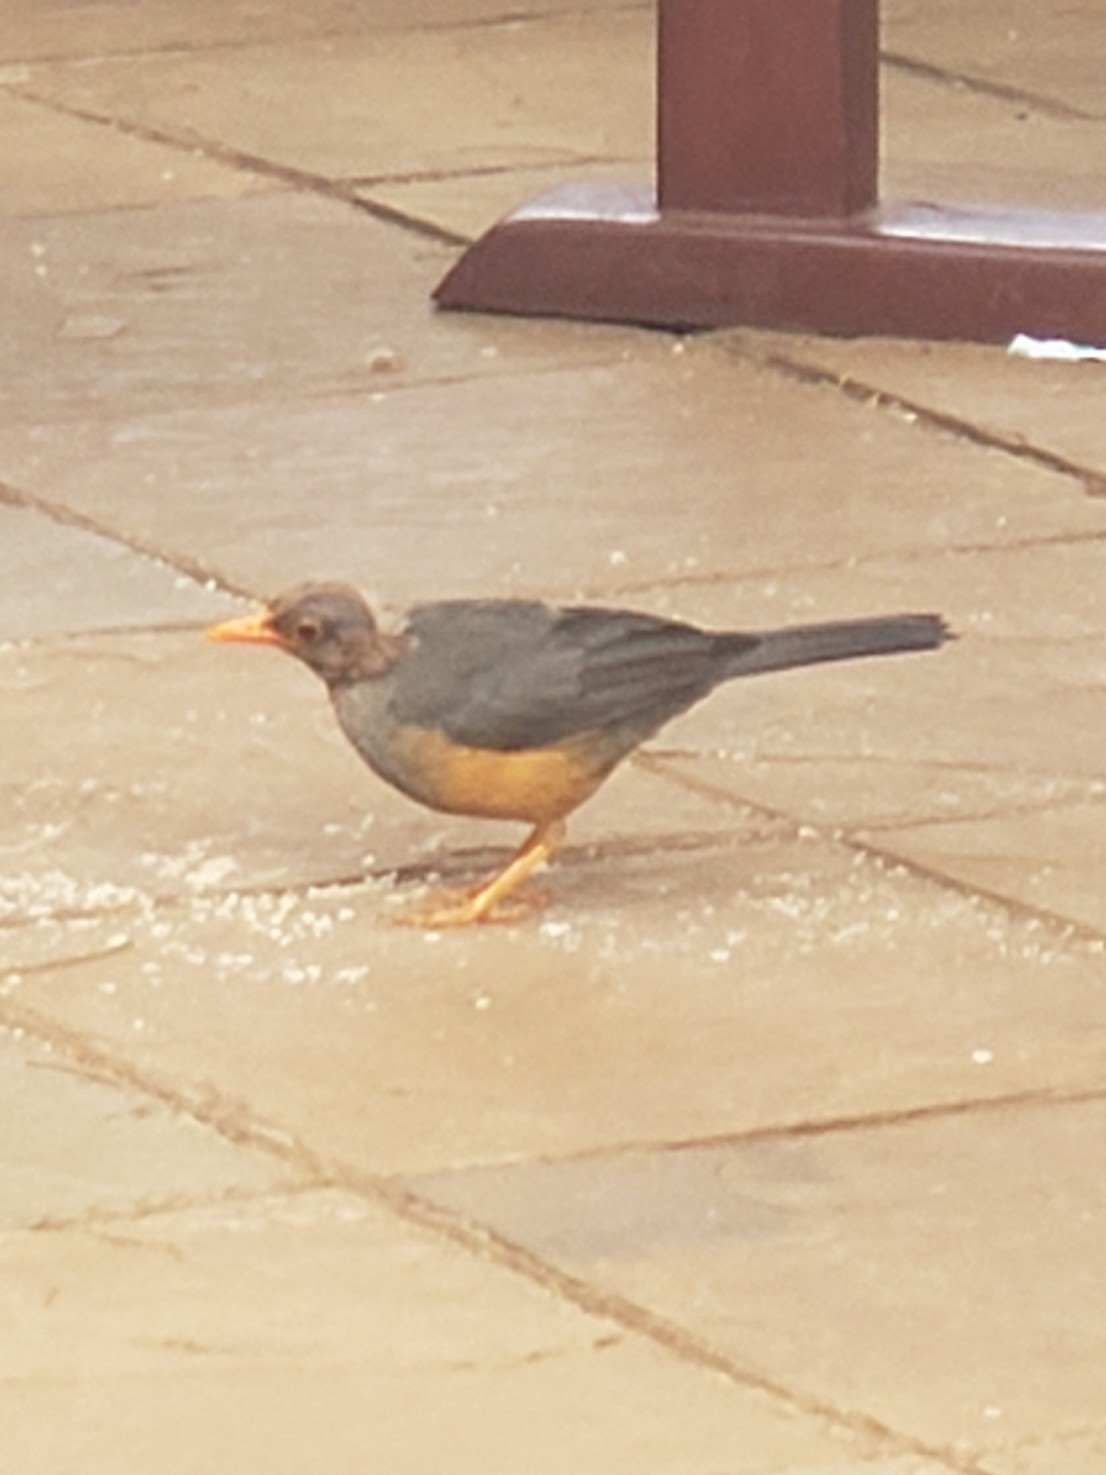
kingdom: Animalia
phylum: Chordata
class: Aves
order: Passeriformes
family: Turdidae
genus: Turdus
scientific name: Turdus abyssinicus
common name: Abyssinian thrush
